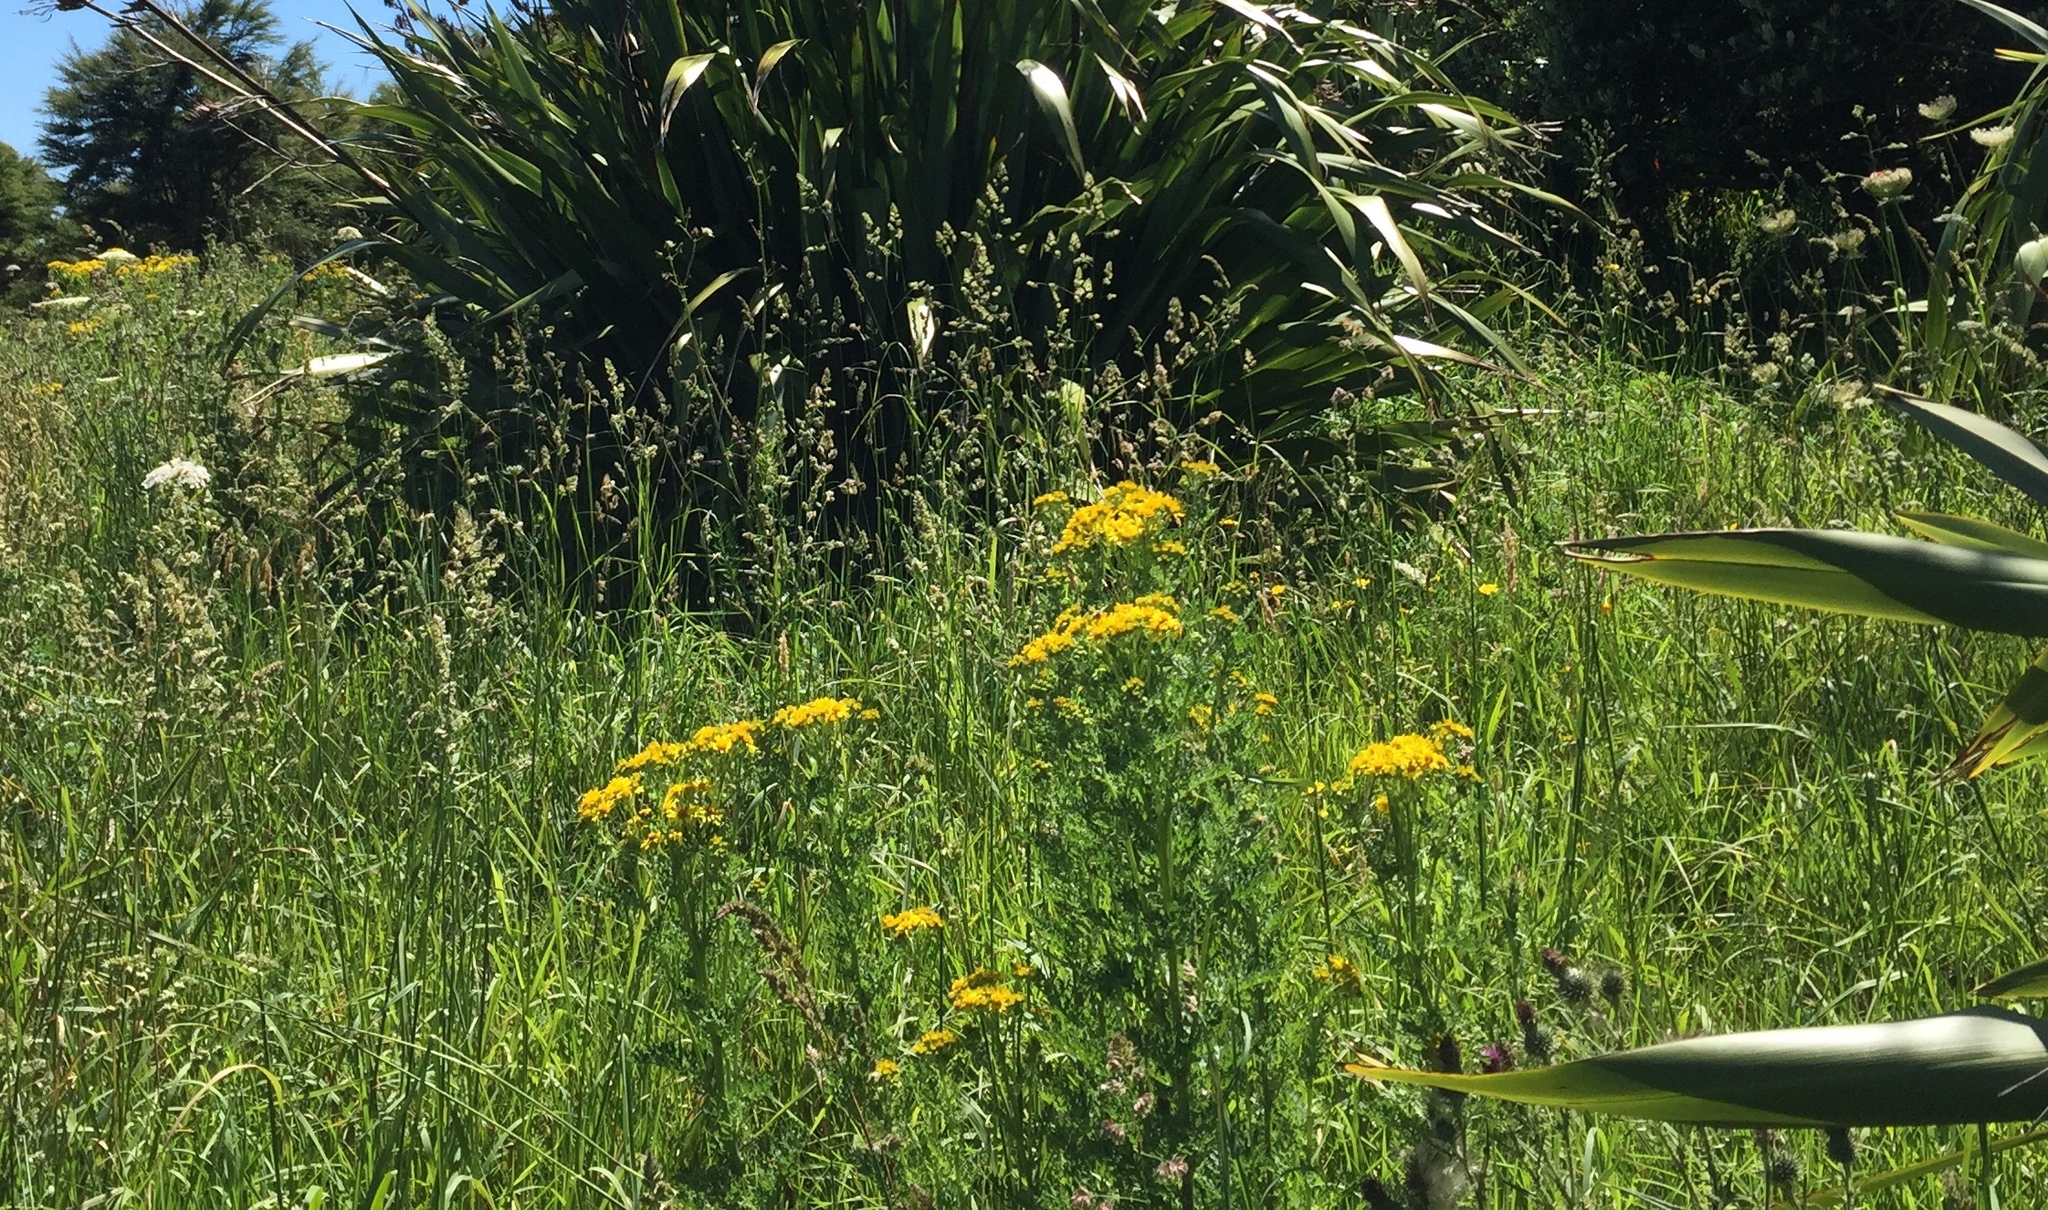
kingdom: Plantae
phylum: Tracheophyta
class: Magnoliopsida
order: Asterales
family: Asteraceae
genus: Jacobaea
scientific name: Jacobaea vulgaris
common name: Stinking willie
